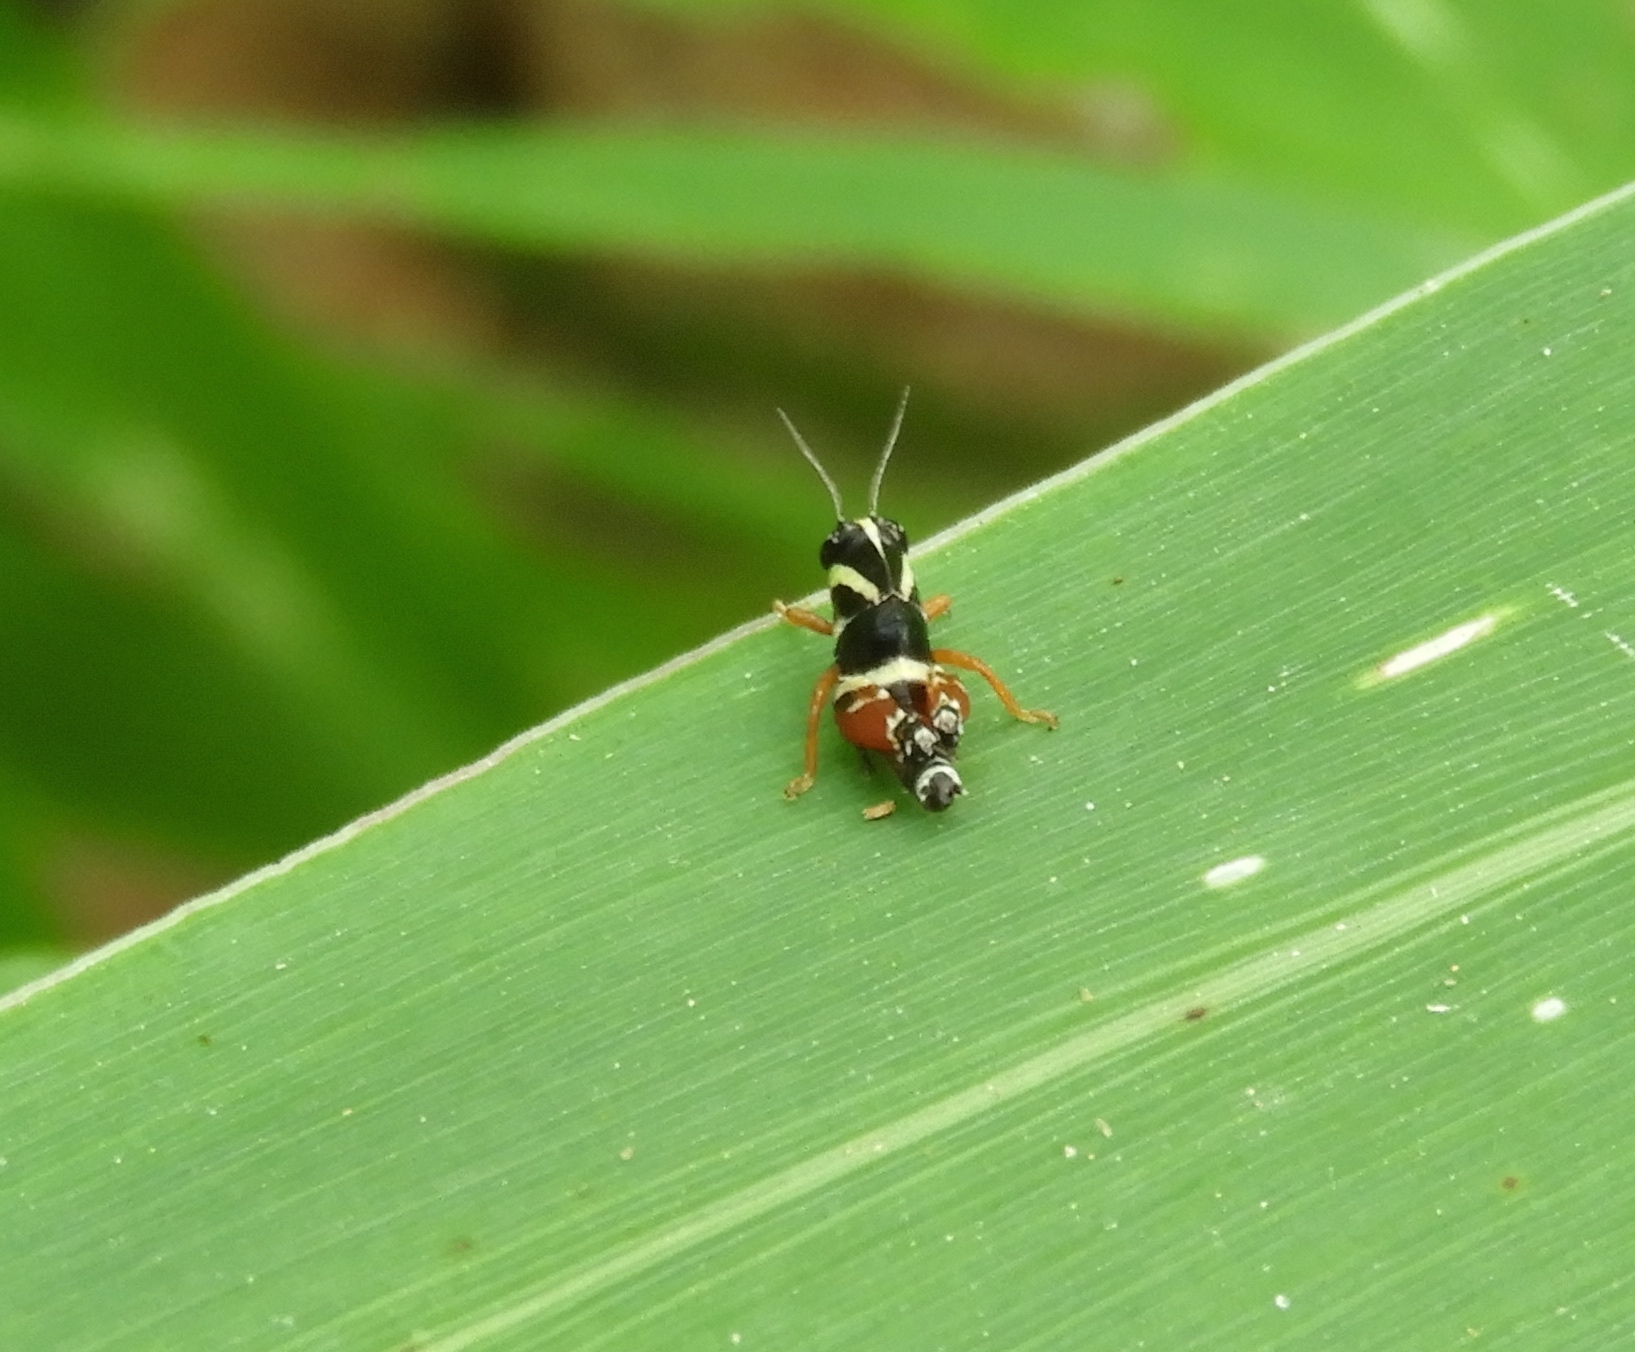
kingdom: Animalia
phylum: Arthropoda
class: Insecta
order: Orthoptera
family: Acrididae
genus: Aidemona
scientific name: Aidemona azteca
